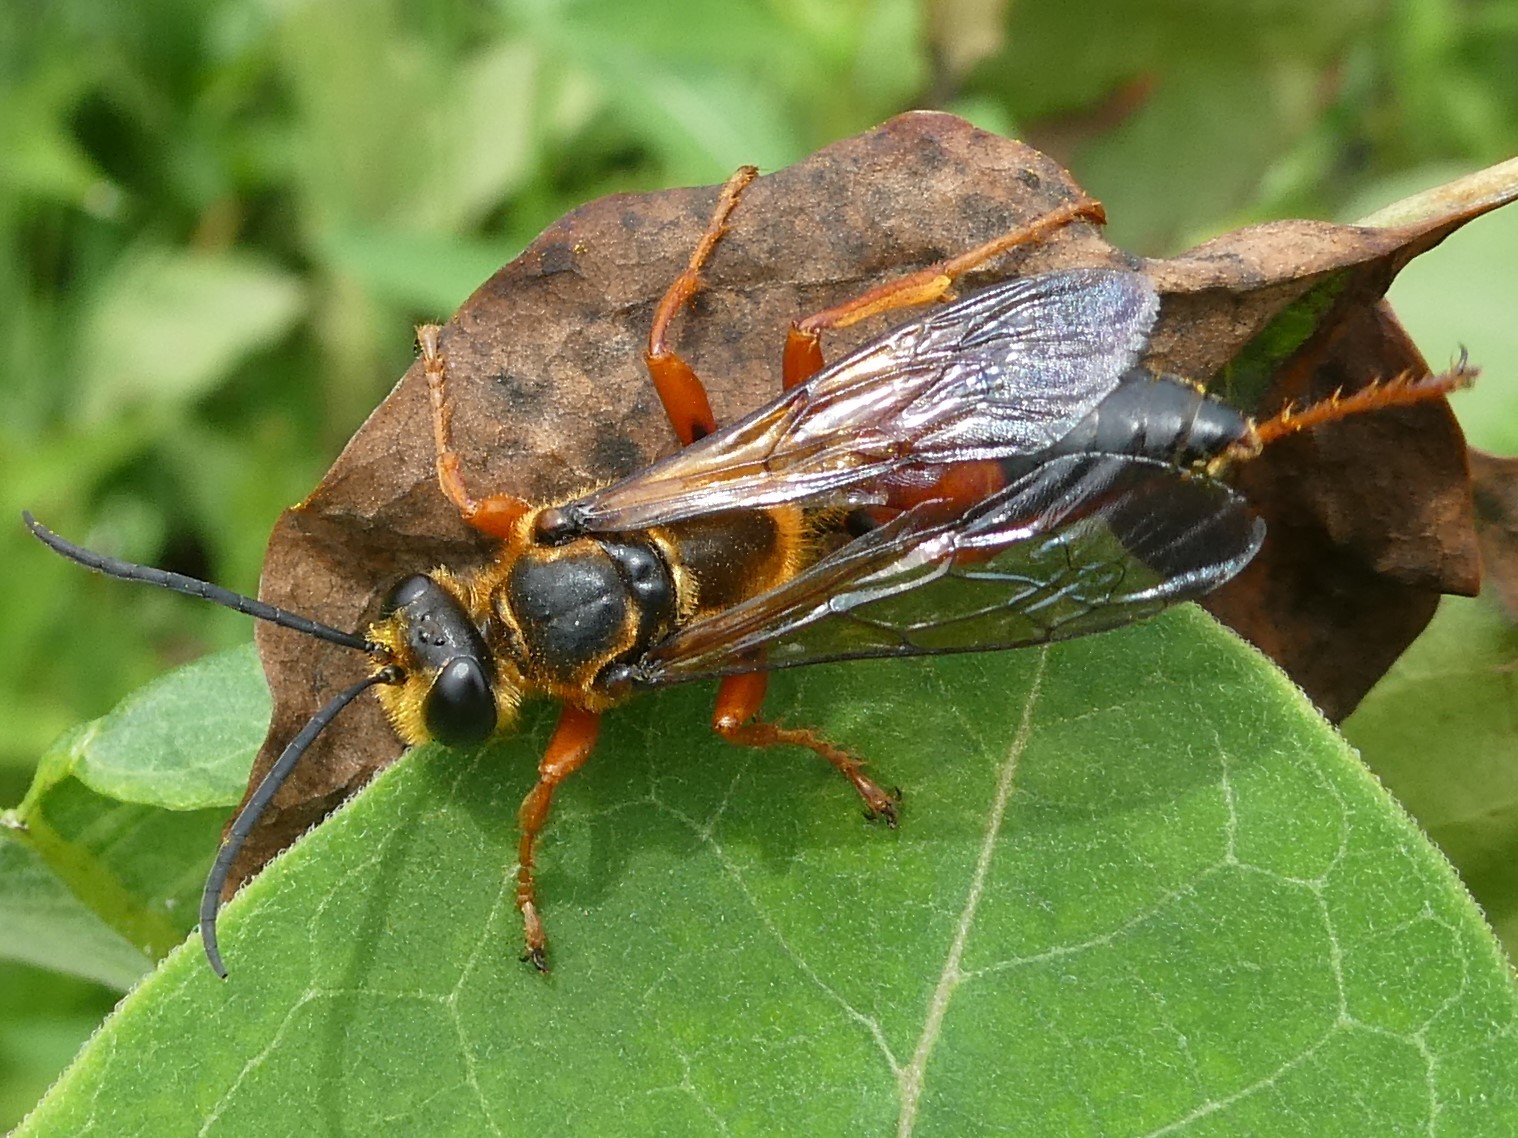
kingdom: Animalia
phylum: Arthropoda
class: Insecta
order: Hymenoptera
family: Sphecidae
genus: Sphex
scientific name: Sphex ichneumoneus
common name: Great golden digger wasp
